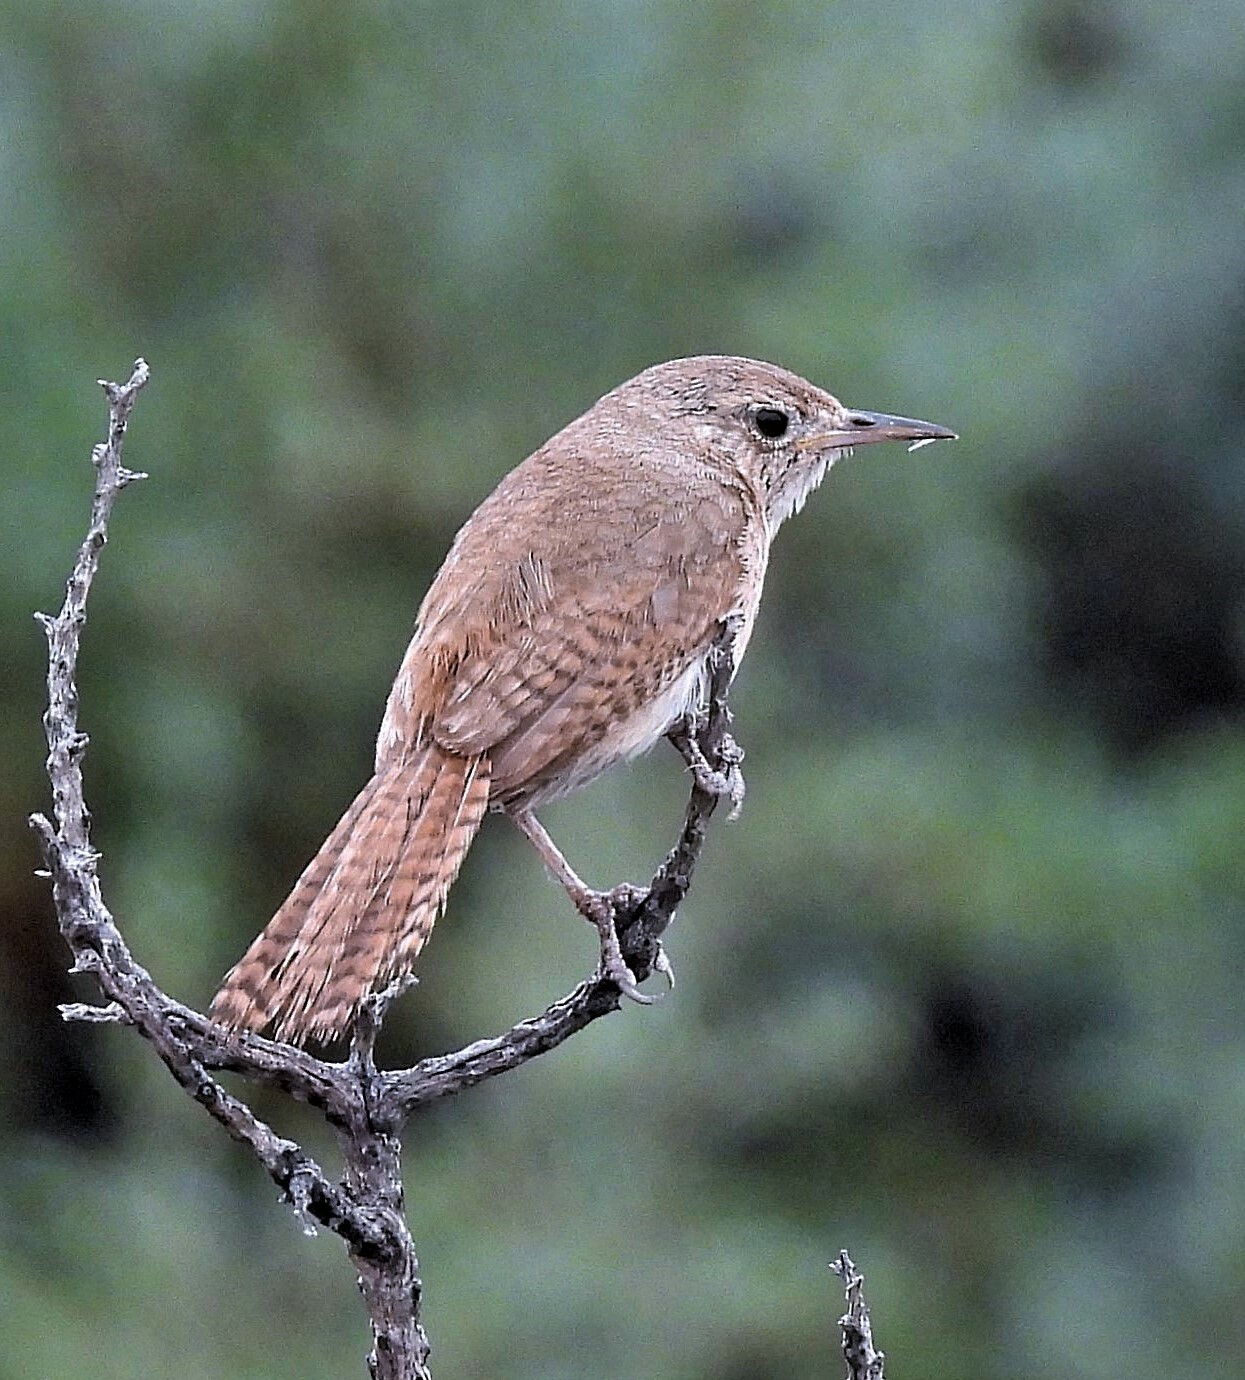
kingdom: Animalia
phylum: Chordata
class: Aves
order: Passeriformes
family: Troglodytidae
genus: Troglodytes
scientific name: Troglodytes aedon
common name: House wren
